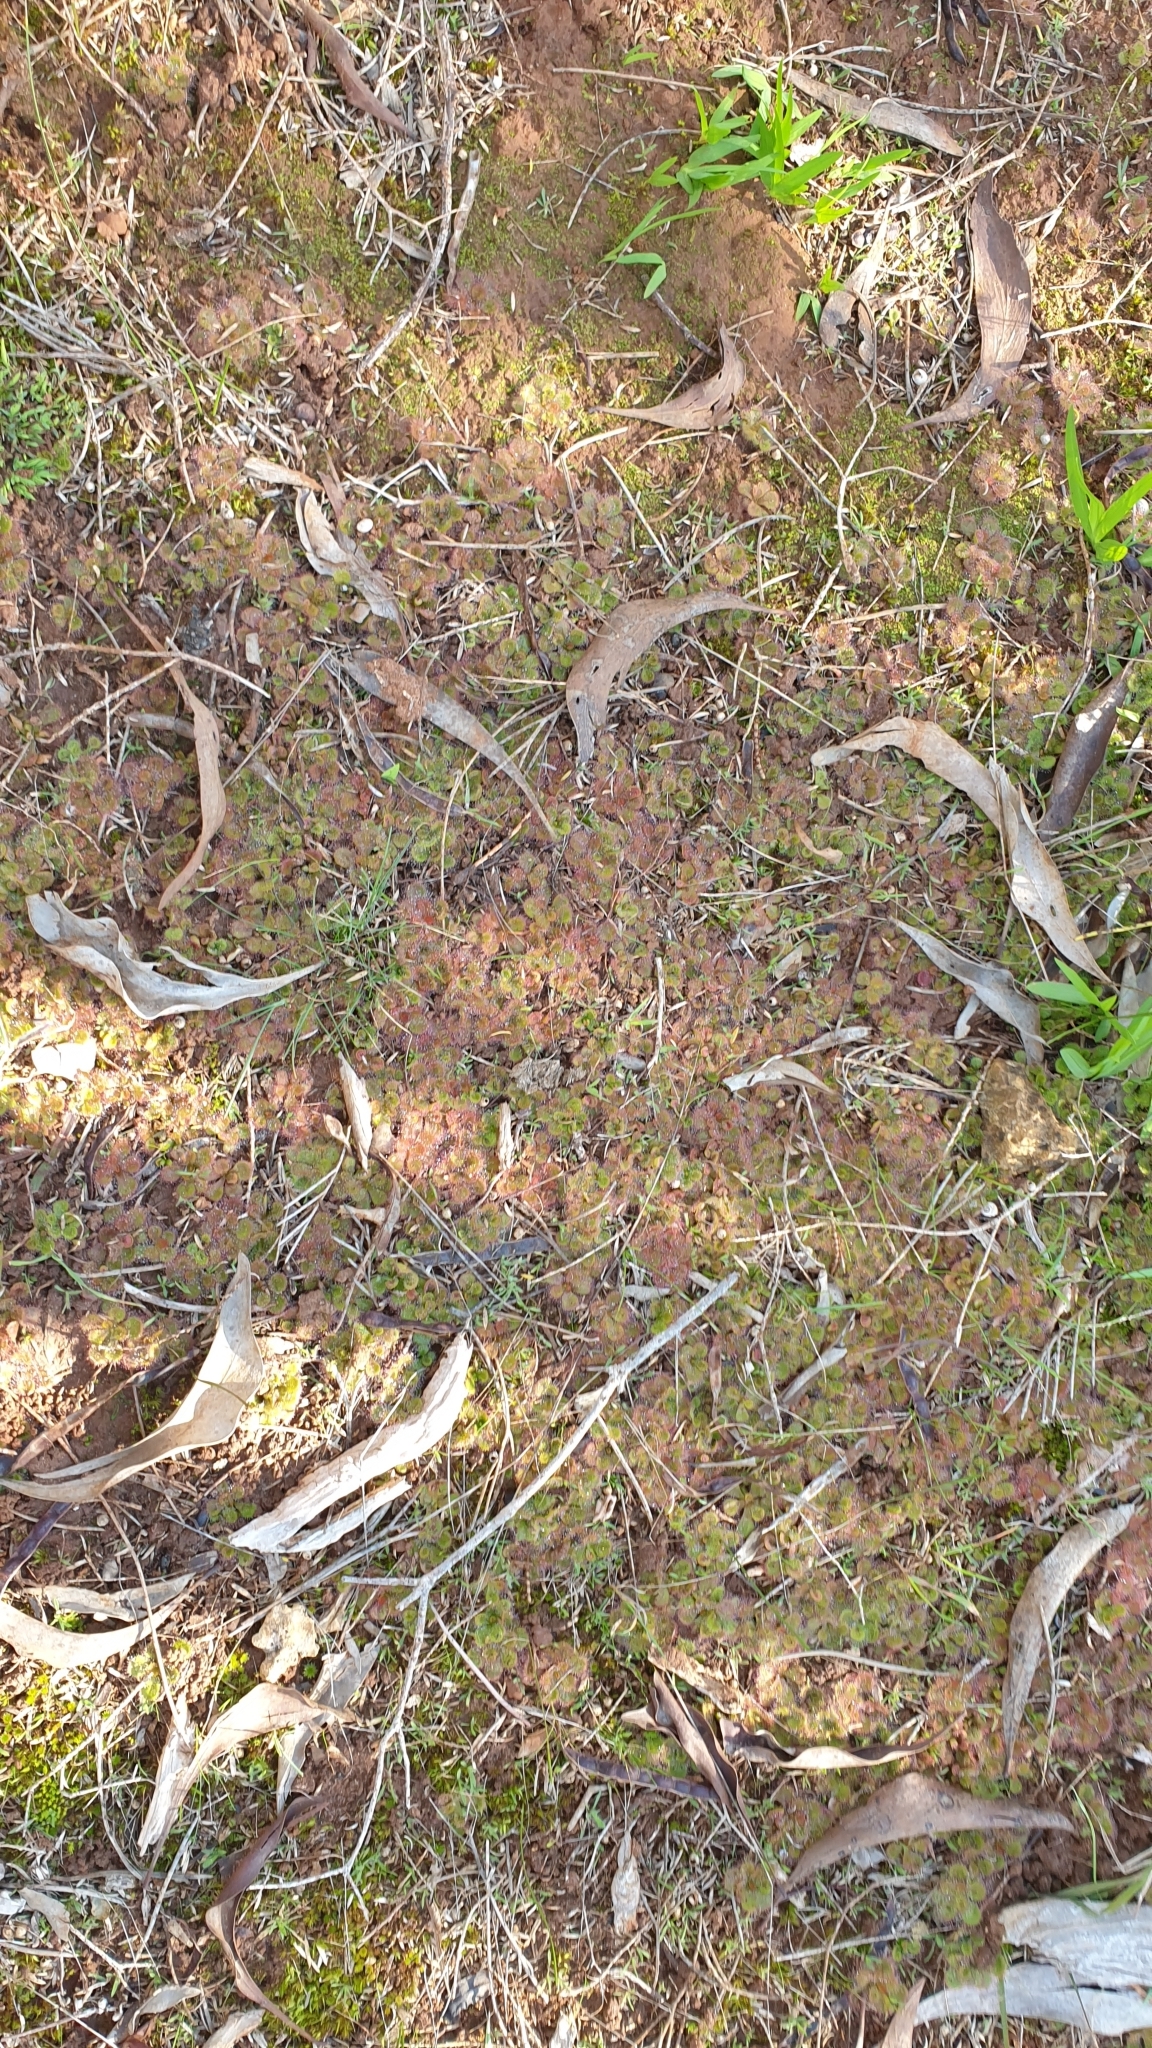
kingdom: Plantae
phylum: Tracheophyta
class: Magnoliopsida
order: Caryophyllales
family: Droseraceae
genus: Drosera
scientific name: Drosera aberrans
